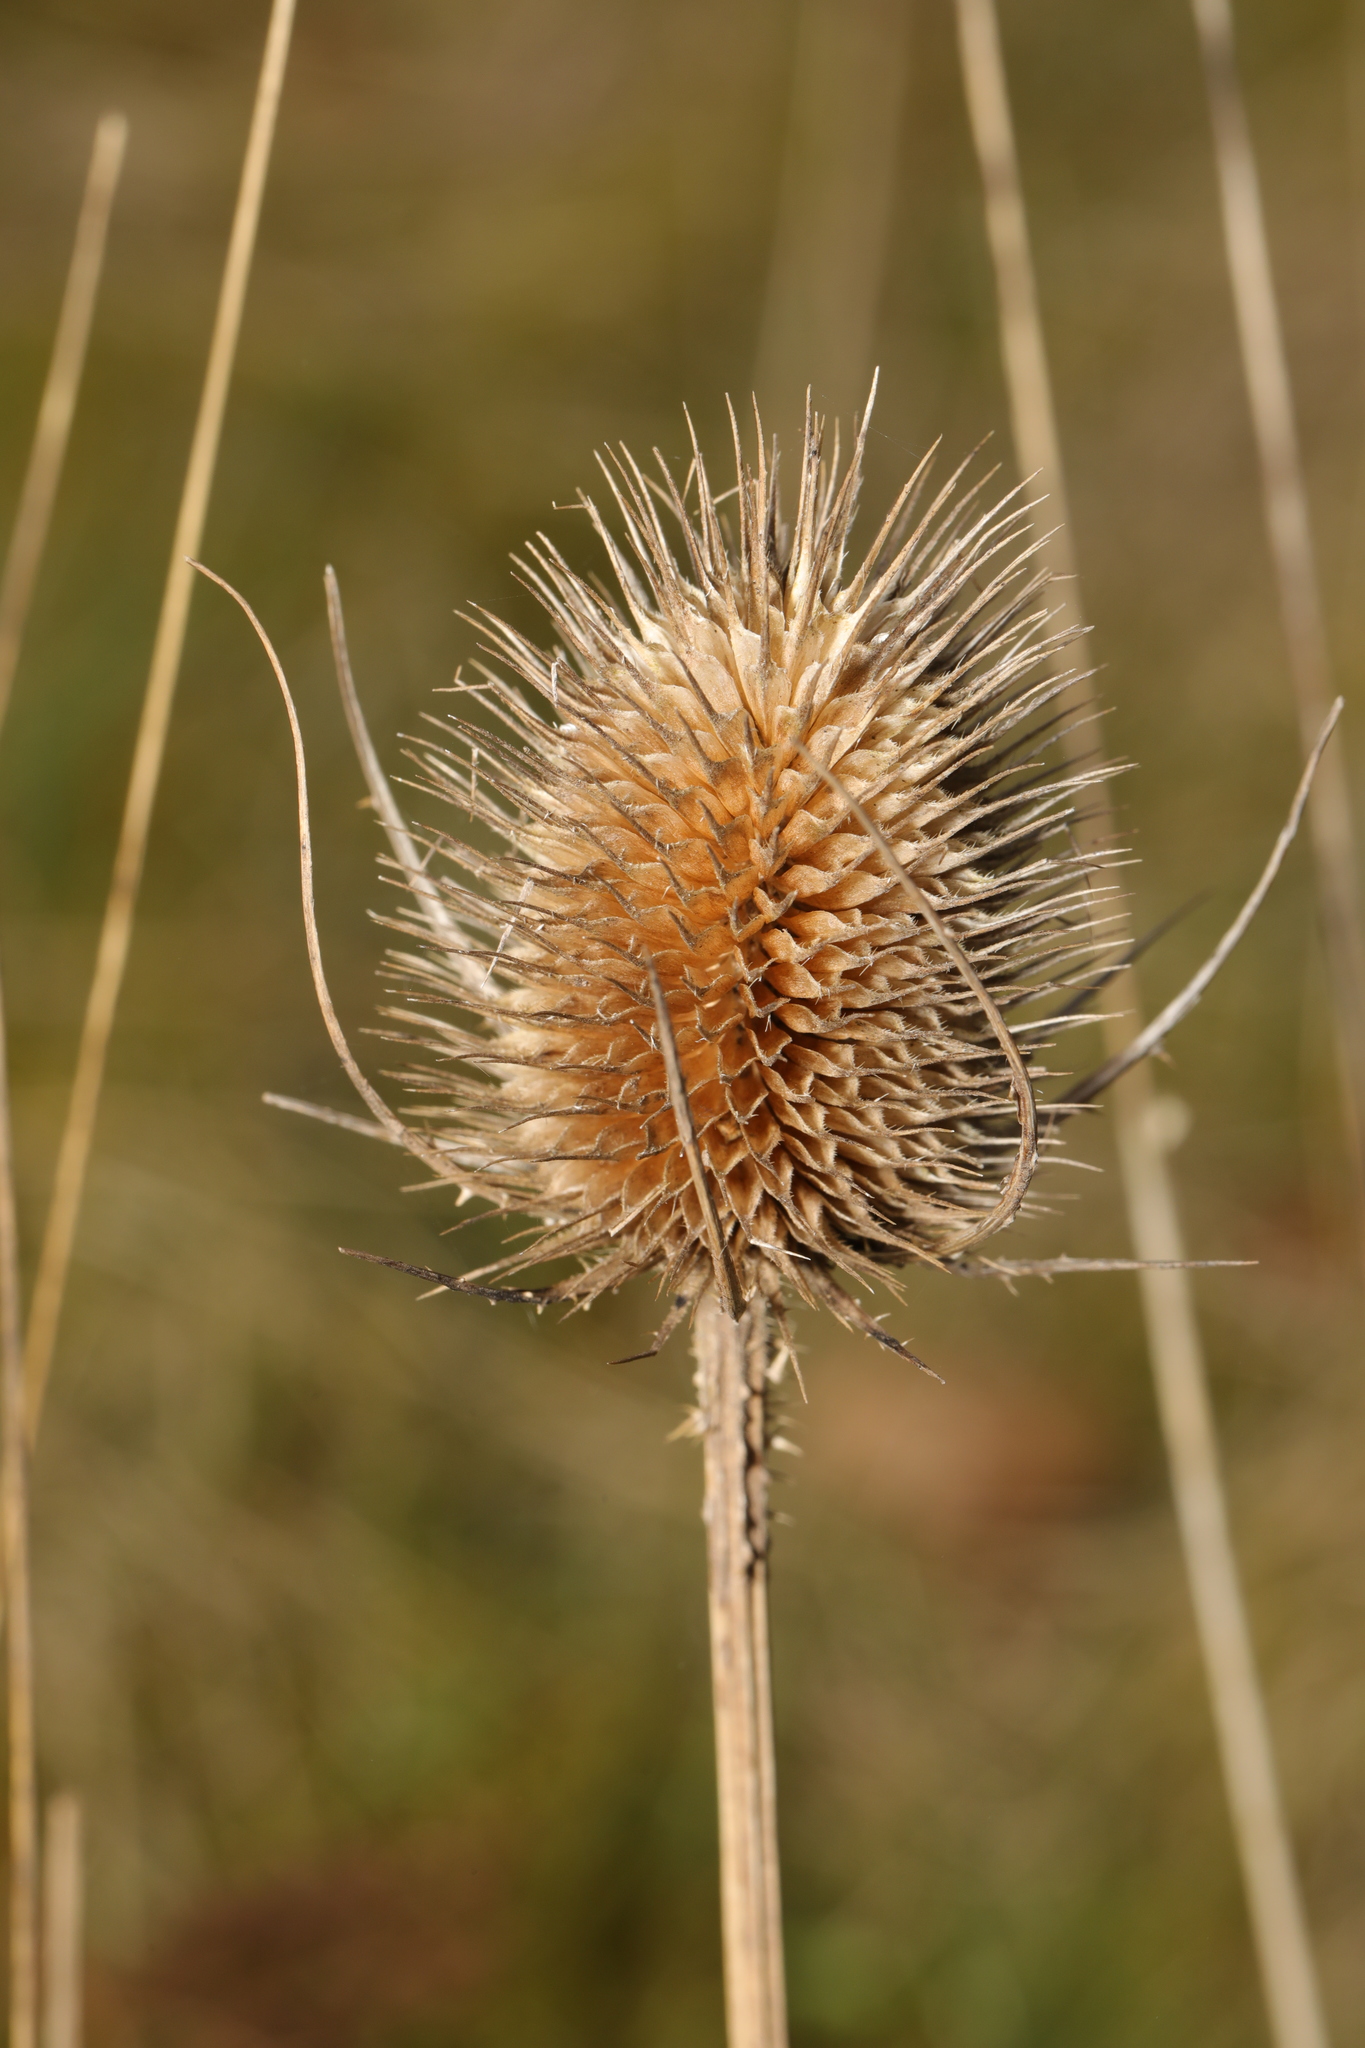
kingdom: Plantae
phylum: Tracheophyta
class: Magnoliopsida
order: Dipsacales
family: Caprifoliaceae
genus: Dipsacus
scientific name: Dipsacus fullonum
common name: Teasel
